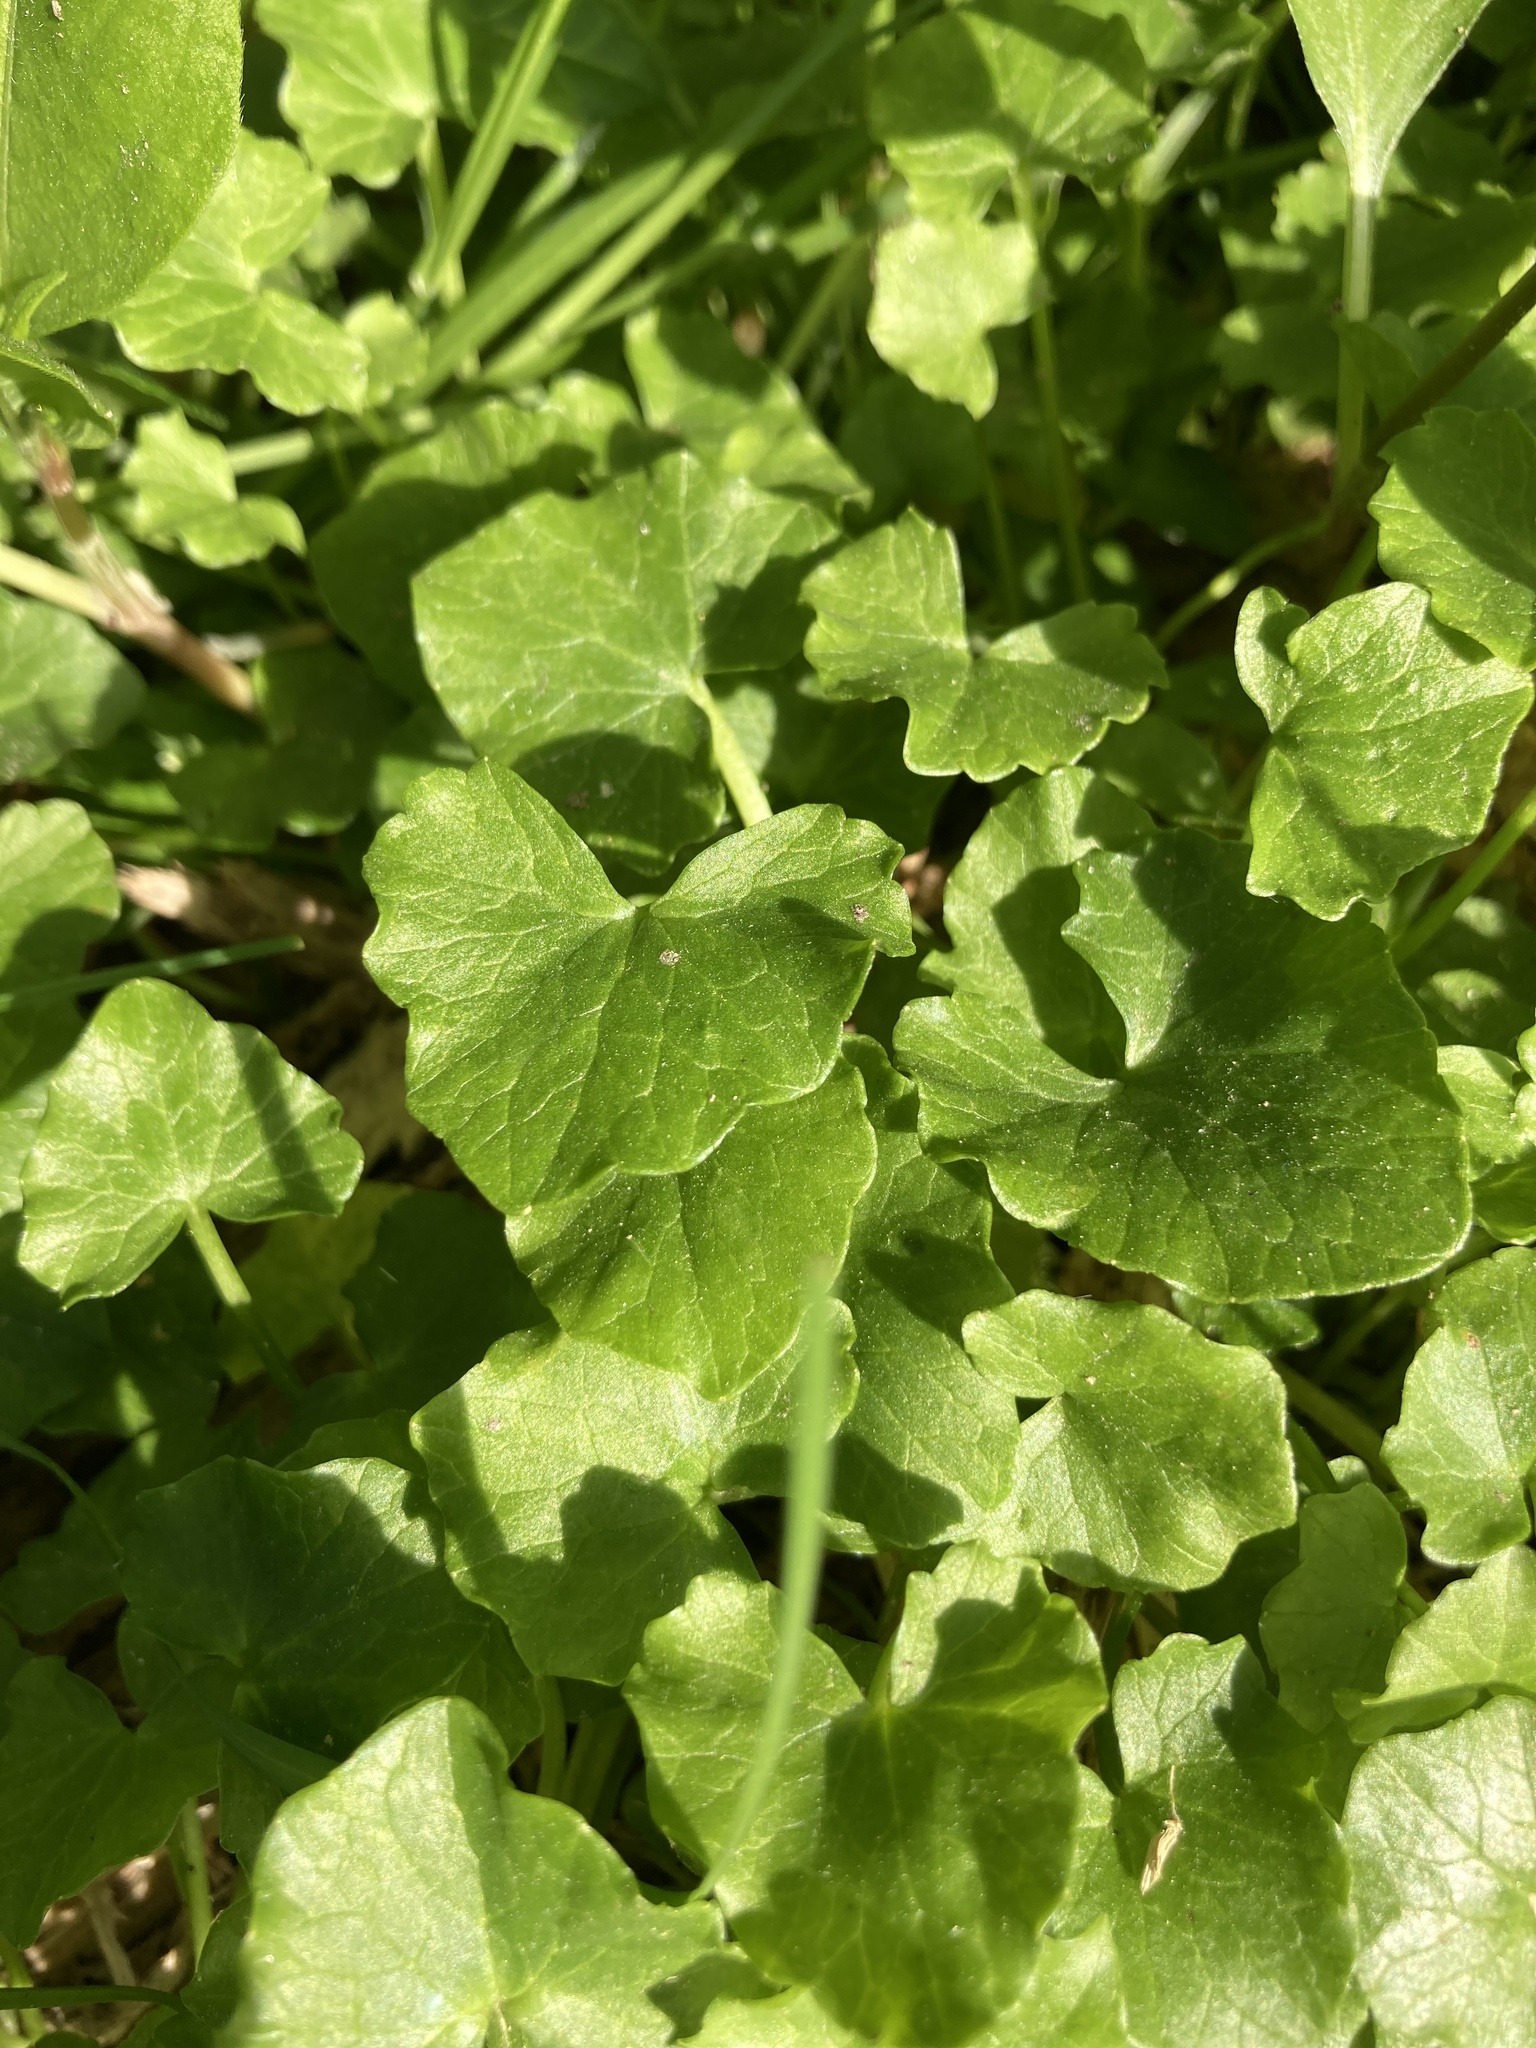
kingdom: Plantae
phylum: Tracheophyta
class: Magnoliopsida
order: Ranunculales
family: Ranunculaceae
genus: Ficaria
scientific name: Ficaria verna
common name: Lesser celandine
